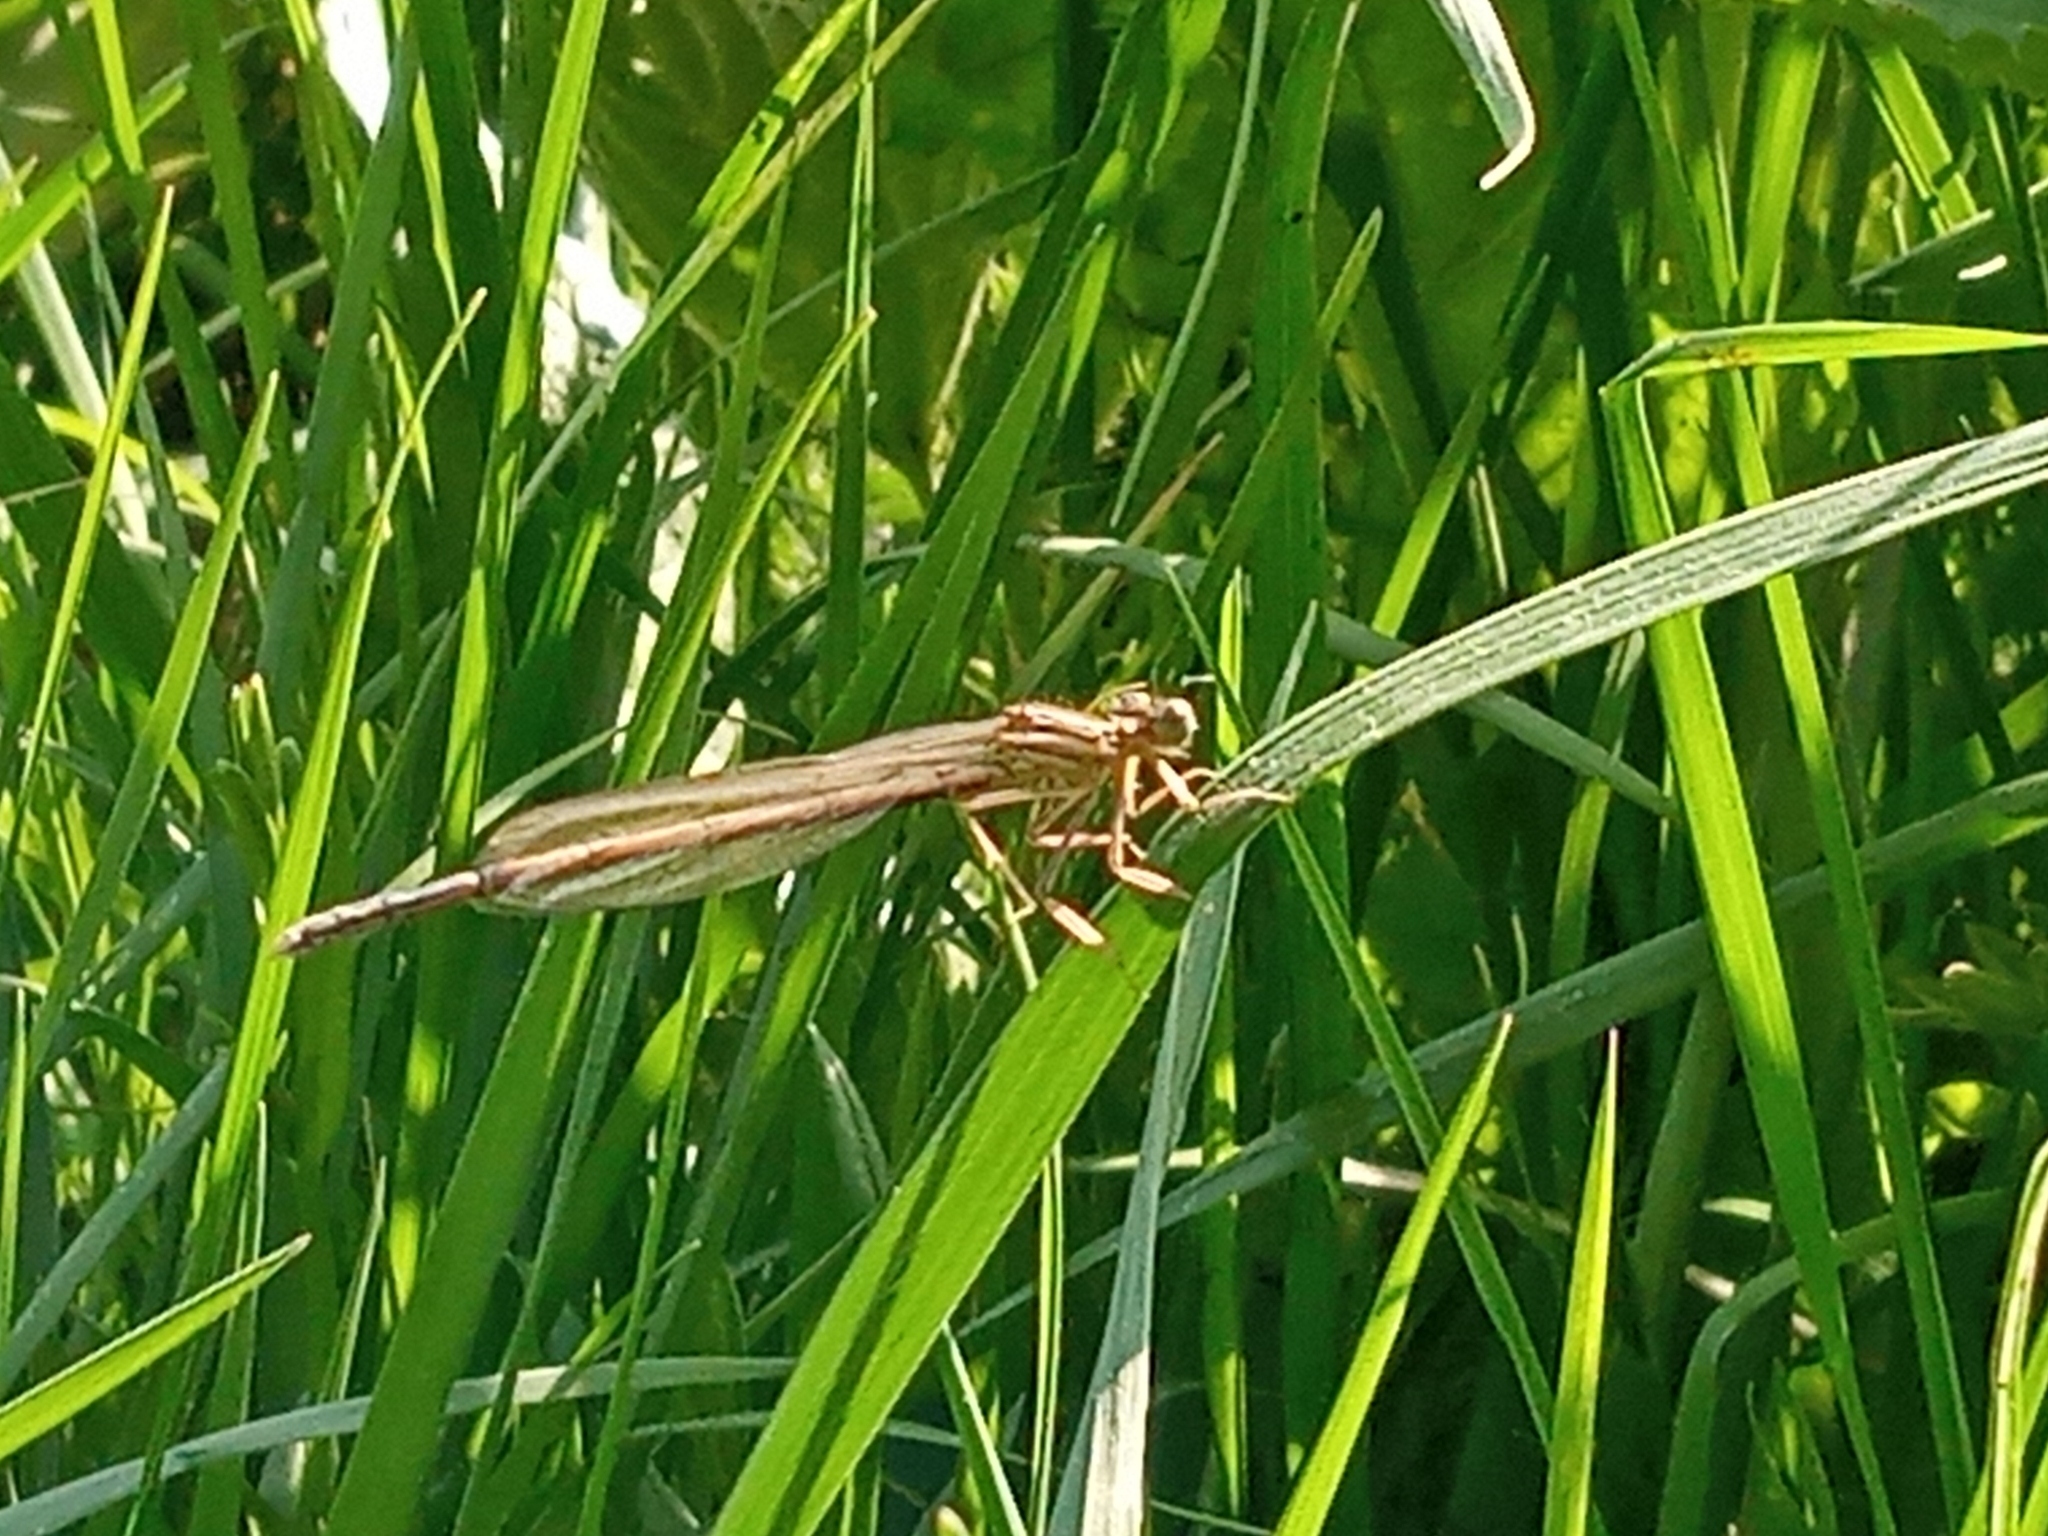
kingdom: Animalia
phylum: Arthropoda
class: Insecta
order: Odonata
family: Platycnemididae
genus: Platycnemis
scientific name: Platycnemis pennipes
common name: White-legged damselfly
